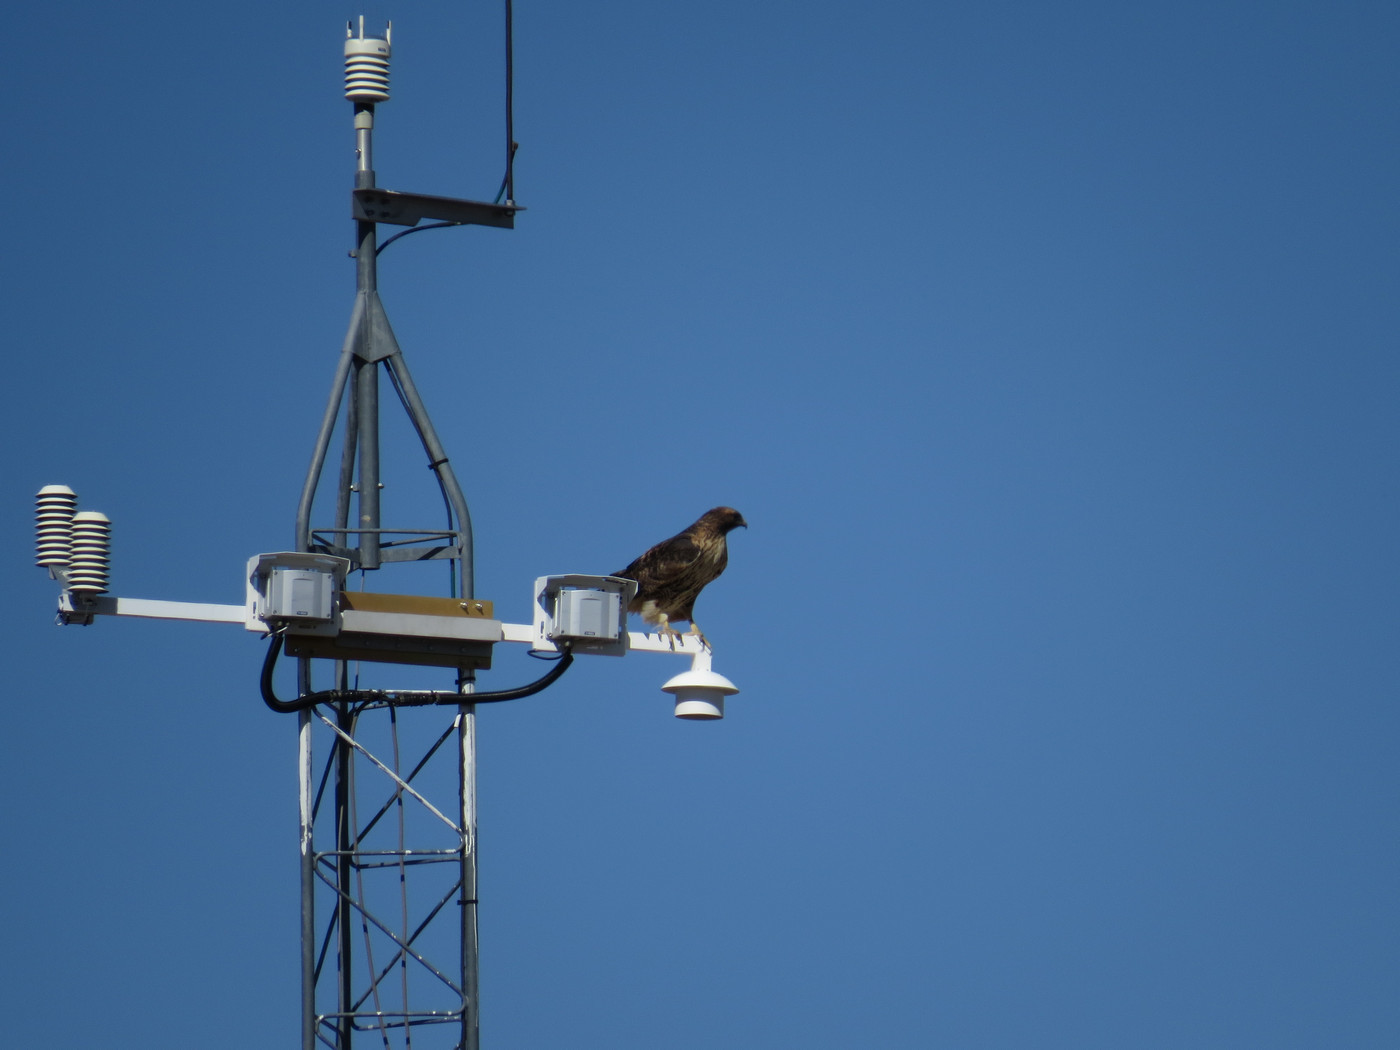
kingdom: Animalia
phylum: Chordata
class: Aves
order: Accipitriformes
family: Accipitridae
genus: Buteo
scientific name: Buteo jamaicensis
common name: Red-tailed hawk
